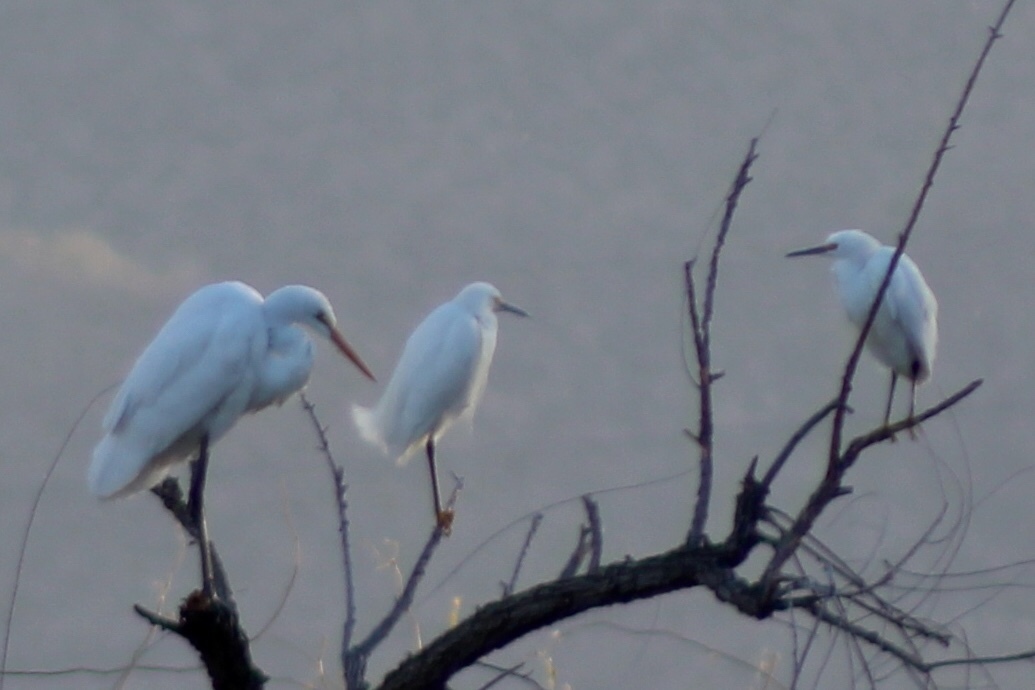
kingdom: Animalia
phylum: Chordata
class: Aves
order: Pelecaniformes
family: Ardeidae
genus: Egretta
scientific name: Egretta thula
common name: Snowy egret
